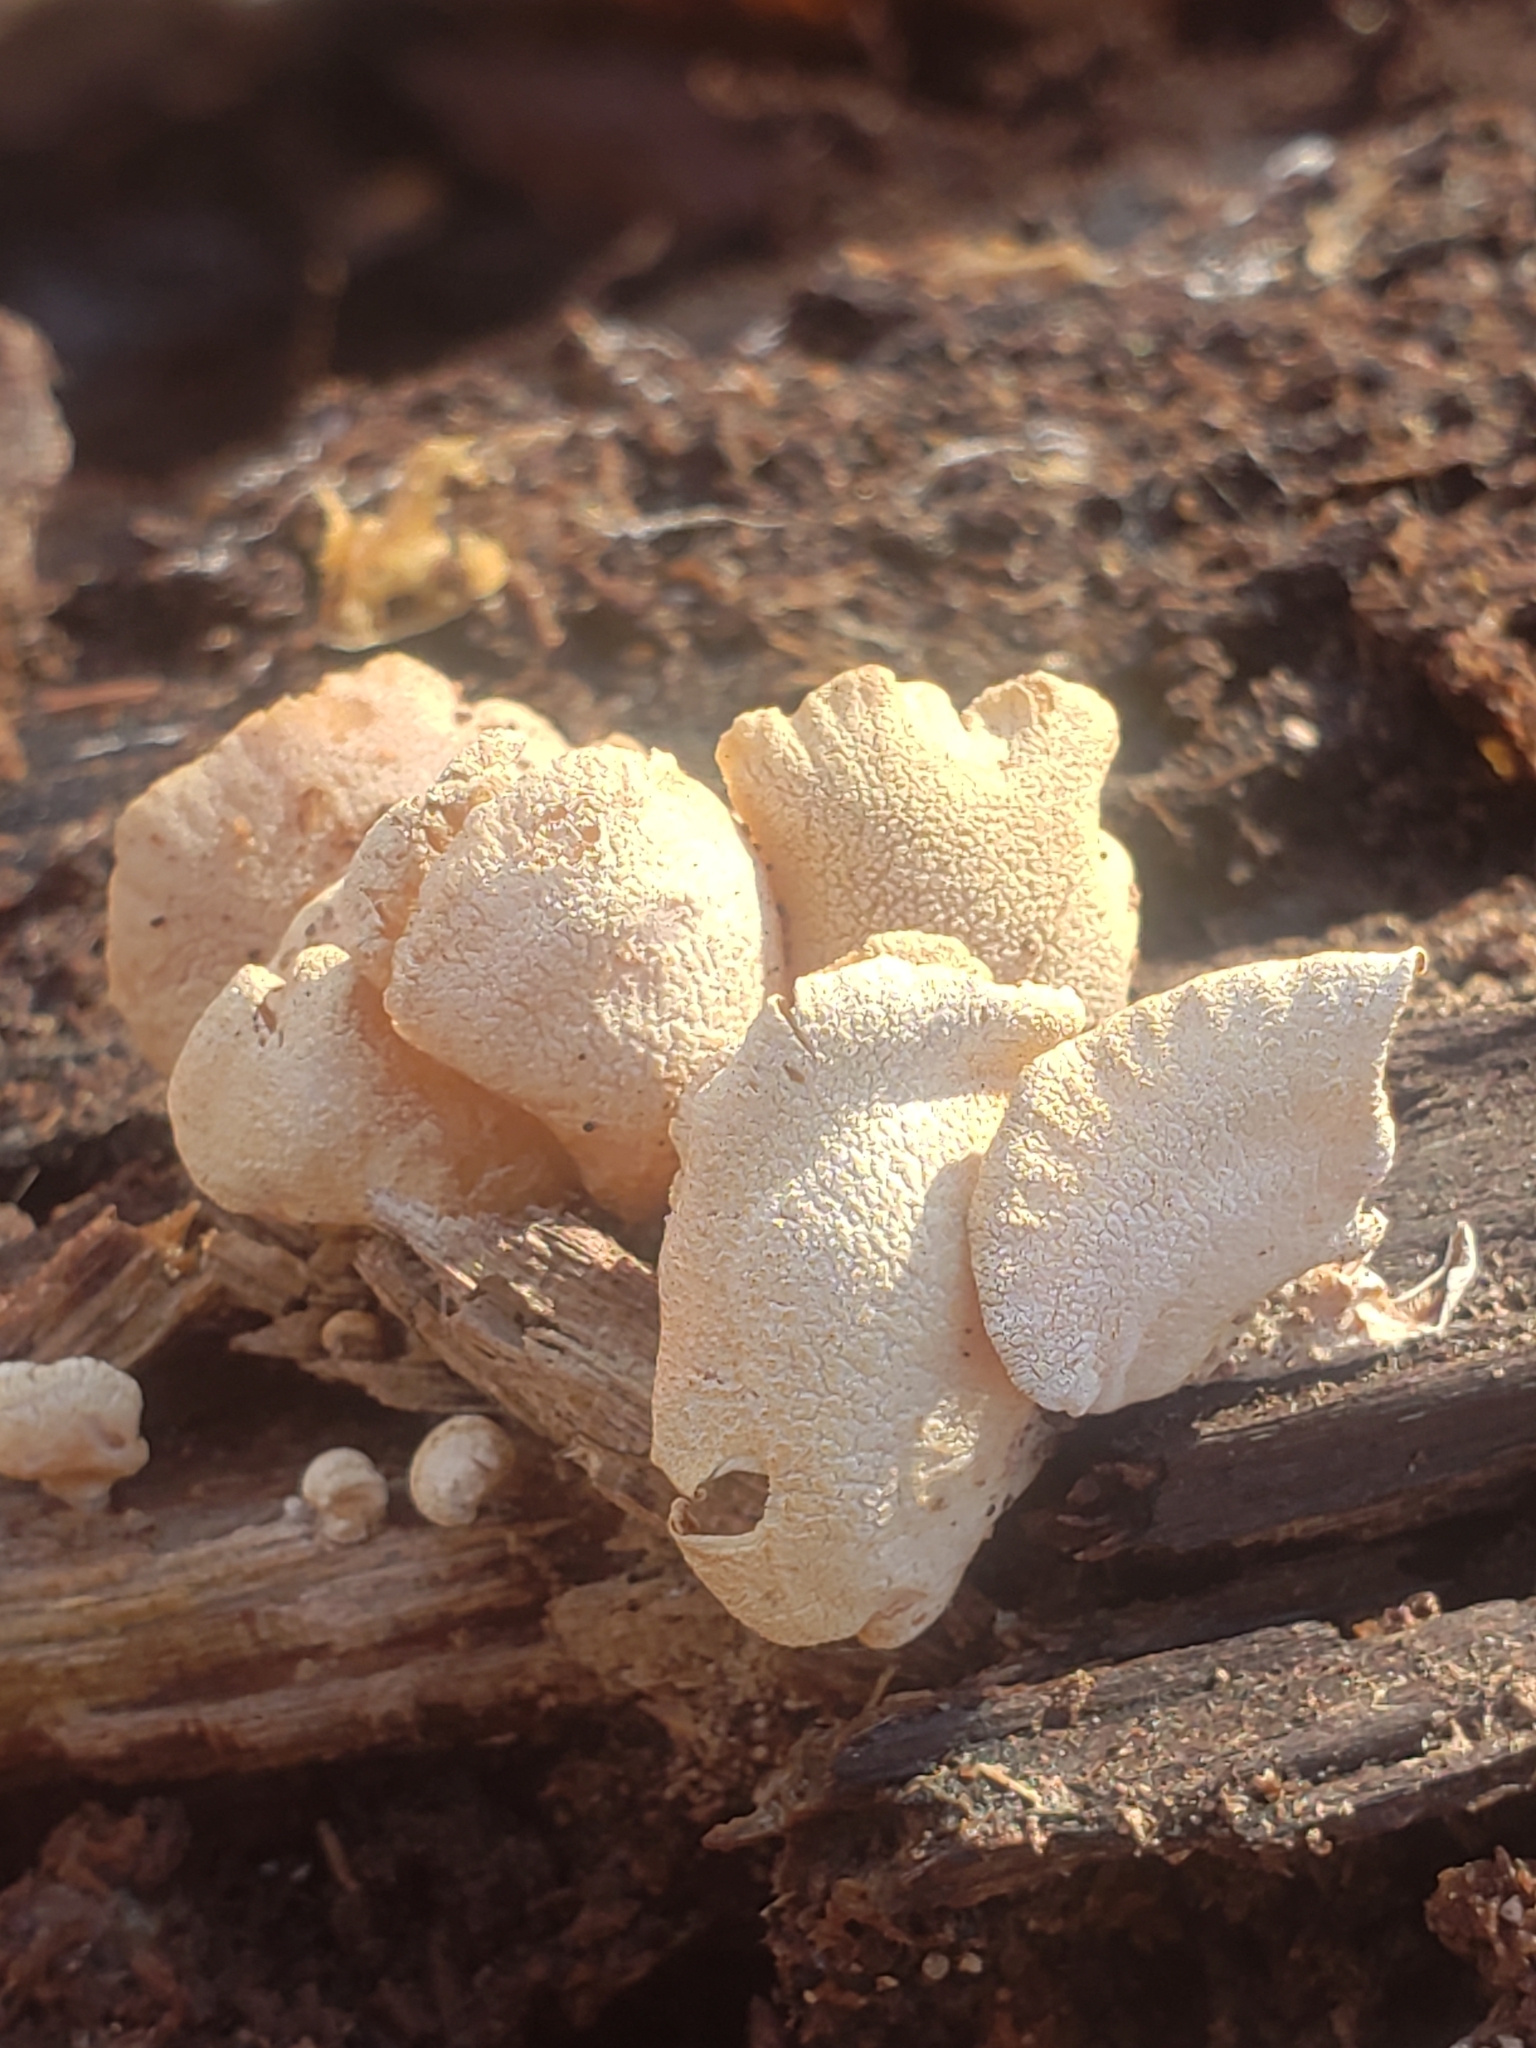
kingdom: Fungi
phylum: Basidiomycota
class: Agaricomycetes
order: Agaricales
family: Mycenaceae
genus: Panellus
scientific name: Panellus stipticus
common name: Bitter oysterling
